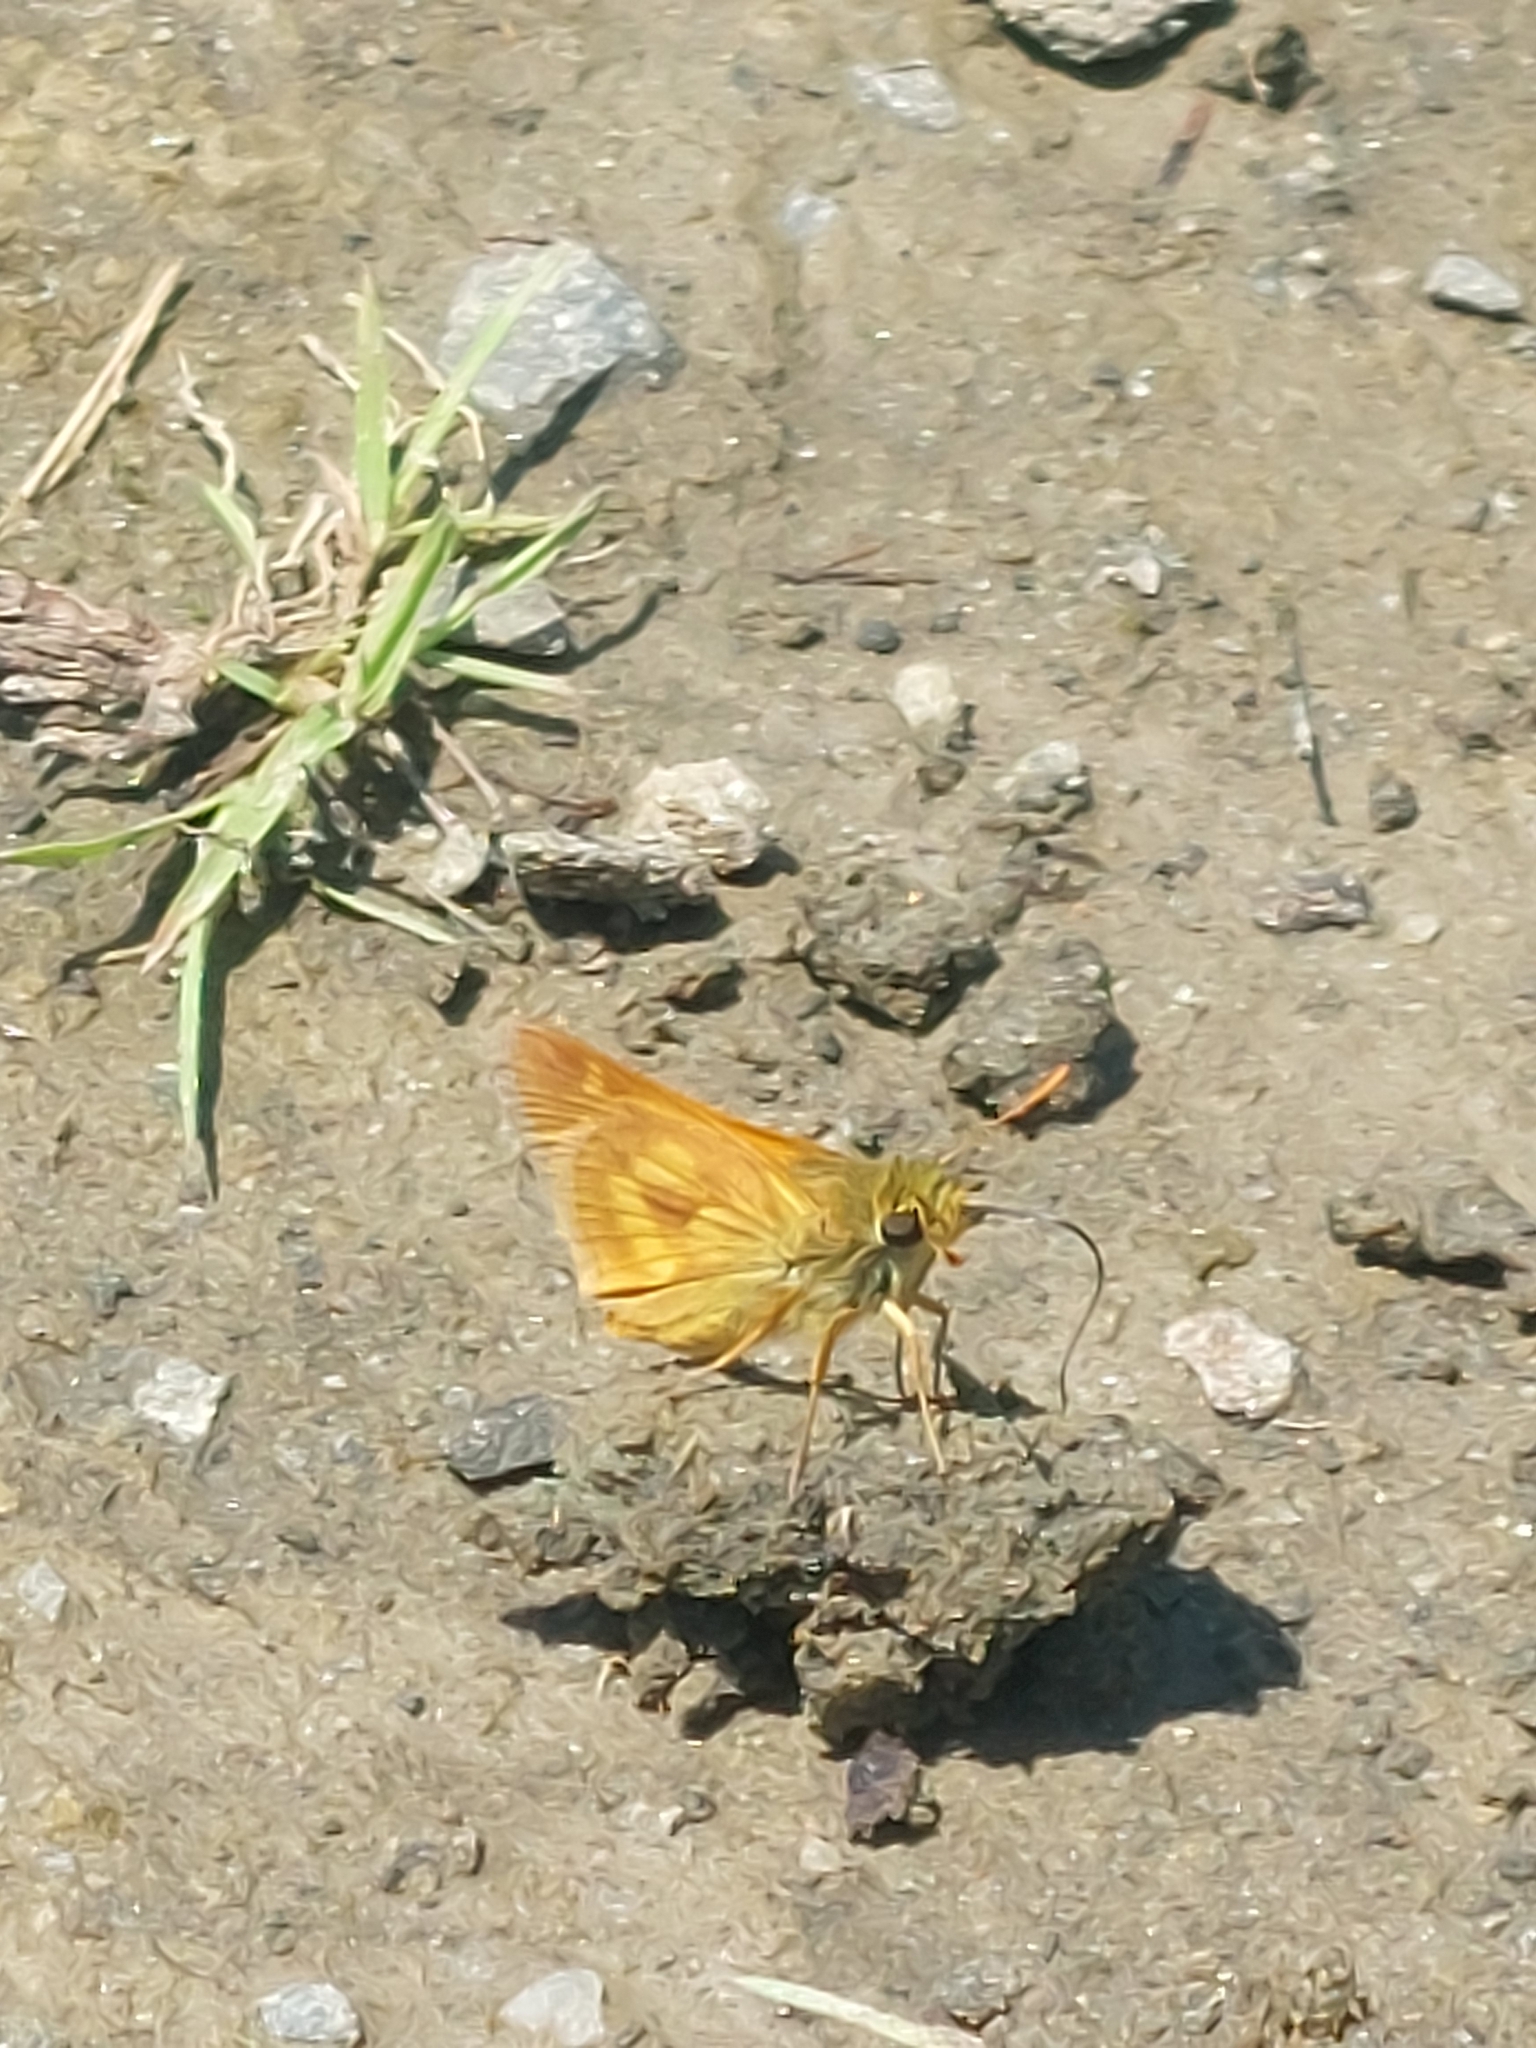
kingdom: Animalia
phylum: Arthropoda
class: Insecta
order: Lepidoptera
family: Hesperiidae
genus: Polites
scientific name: Polites mystic
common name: Long dash
